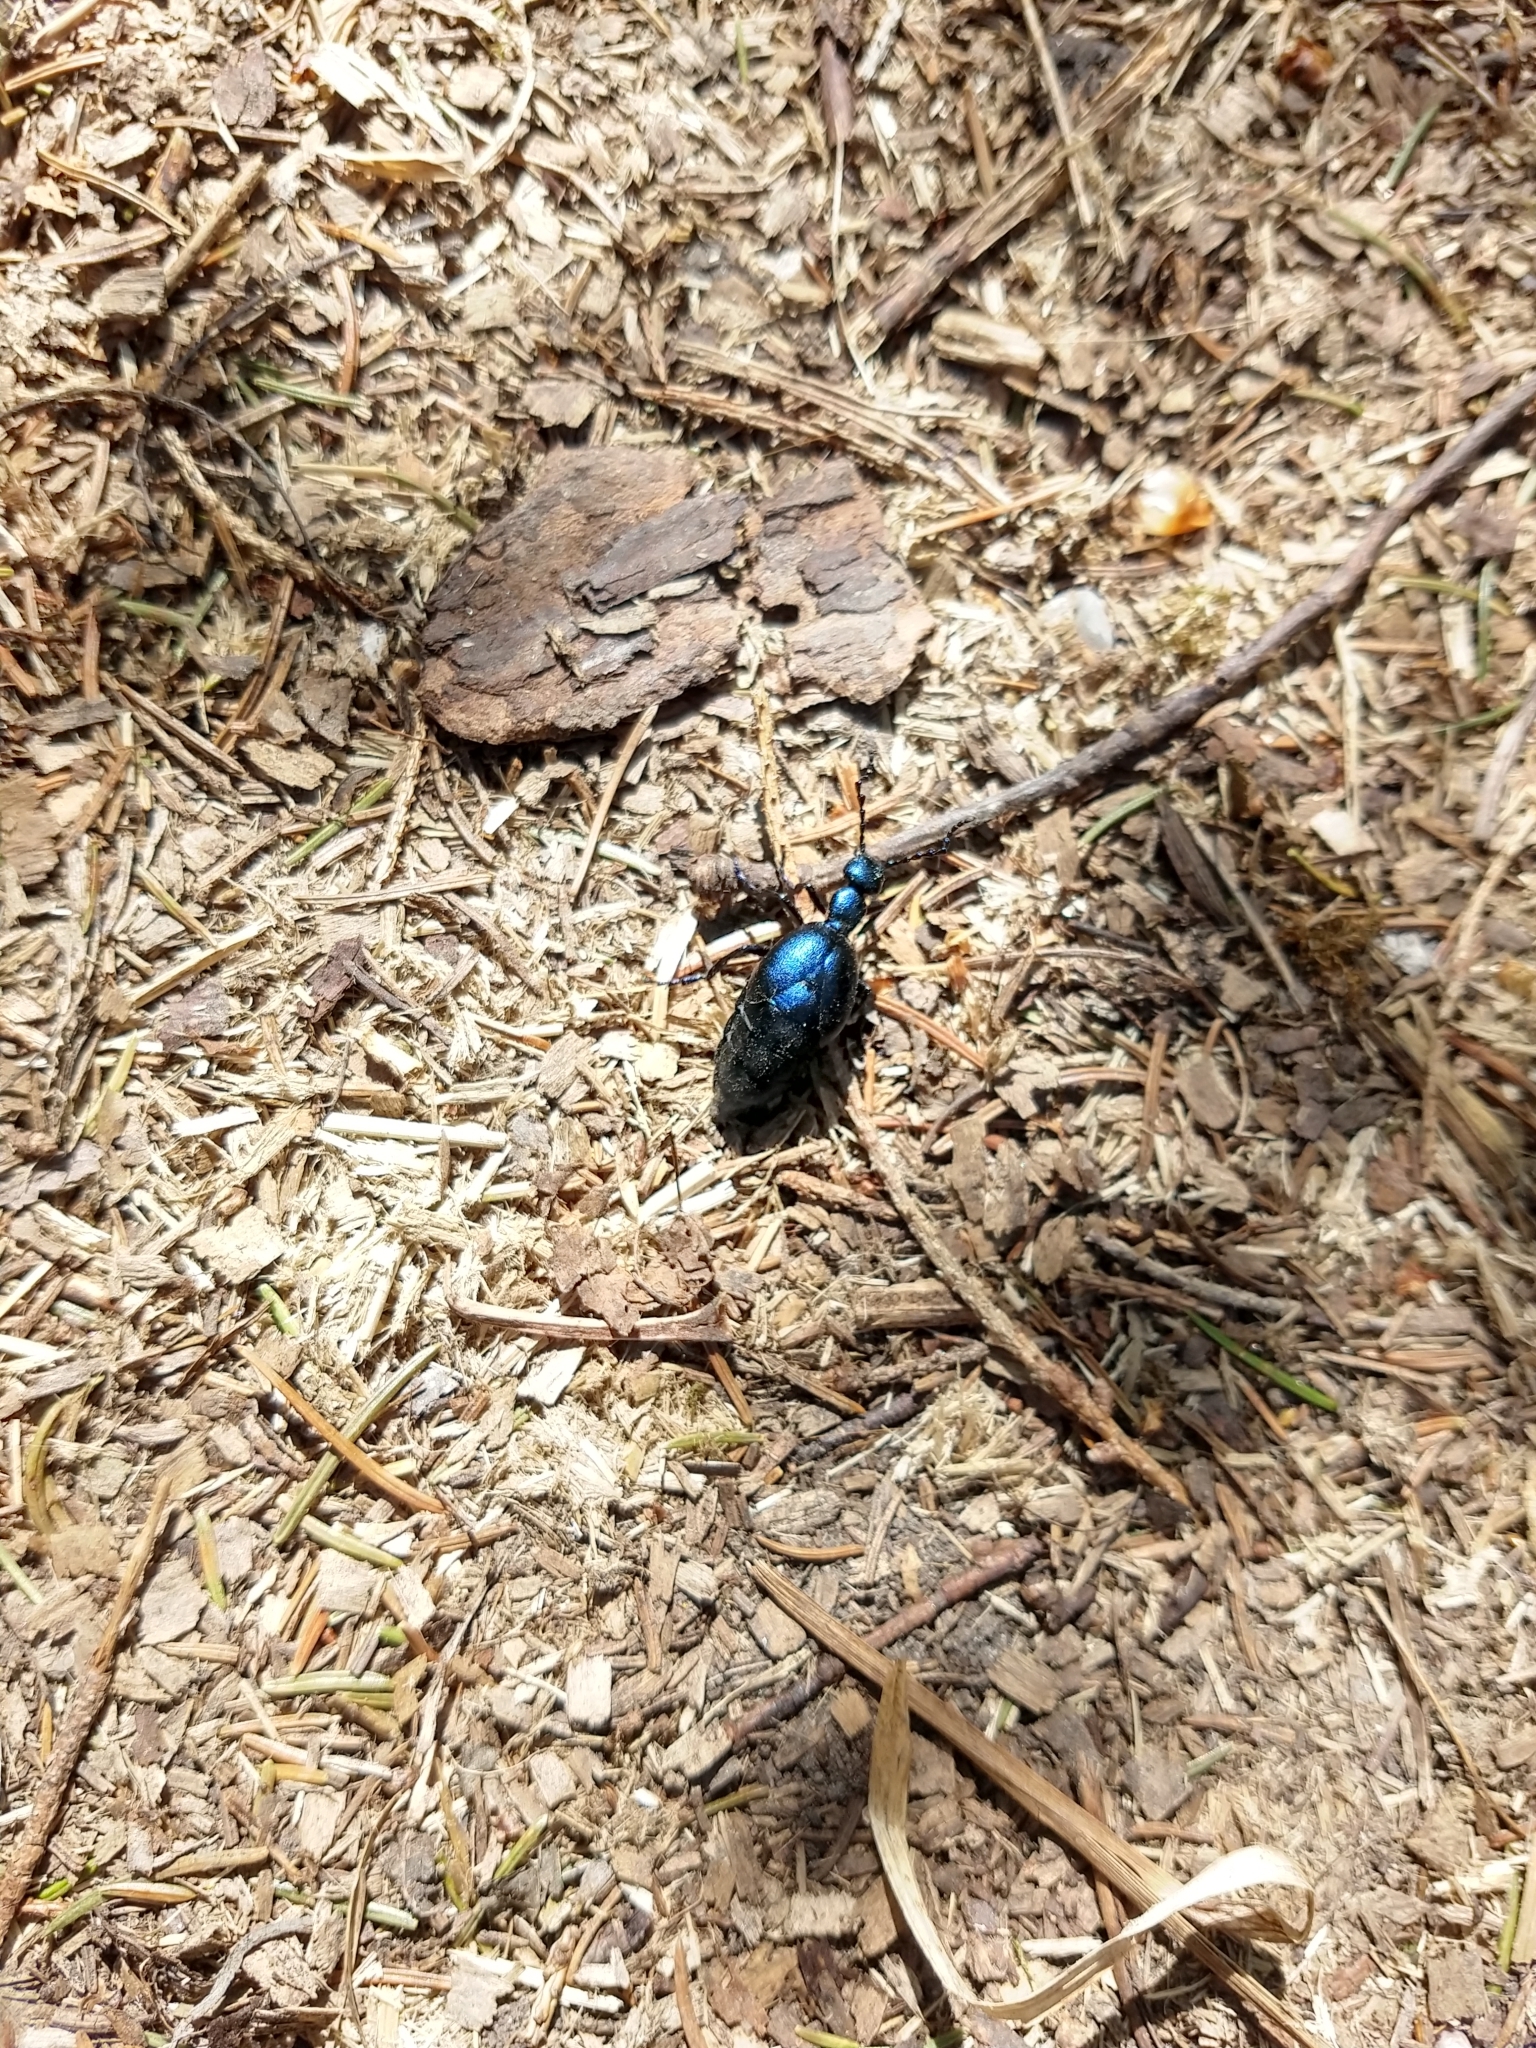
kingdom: Animalia
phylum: Arthropoda
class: Insecta
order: Coleoptera
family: Meloidae
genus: Meloe
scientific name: Meloe violaceus
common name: Violet oil-beetle
